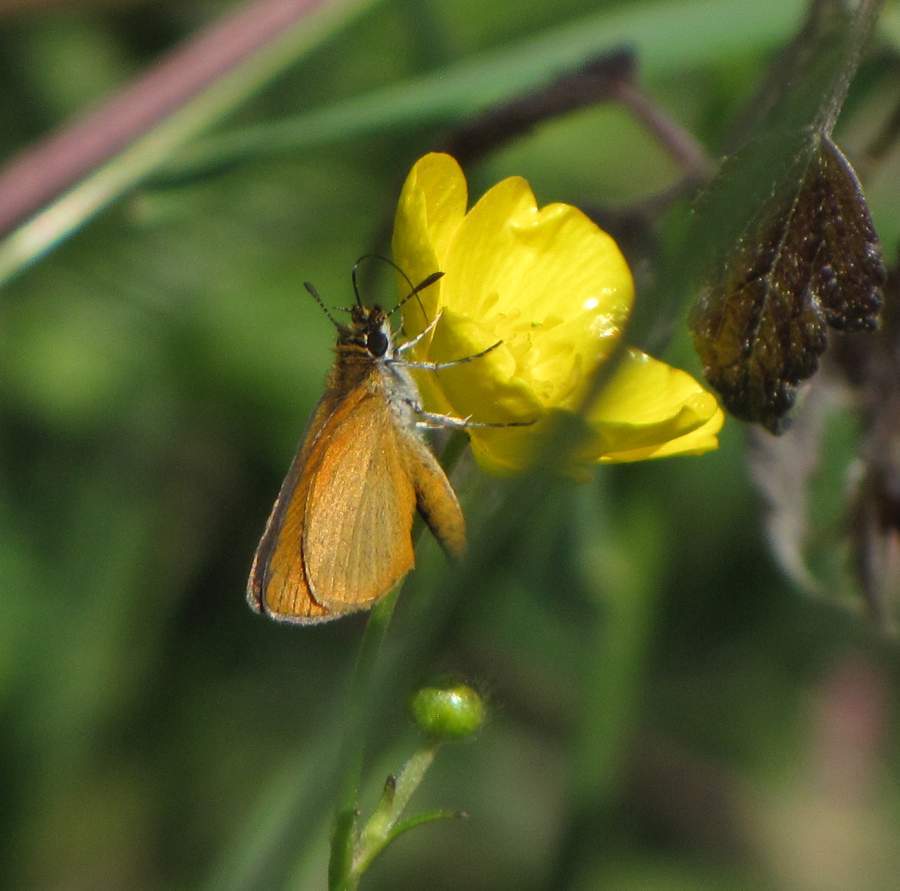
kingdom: Animalia
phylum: Arthropoda
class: Insecta
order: Lepidoptera
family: Hesperiidae
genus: Ancyloxypha
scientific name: Ancyloxypha numitor
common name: Least skipper
